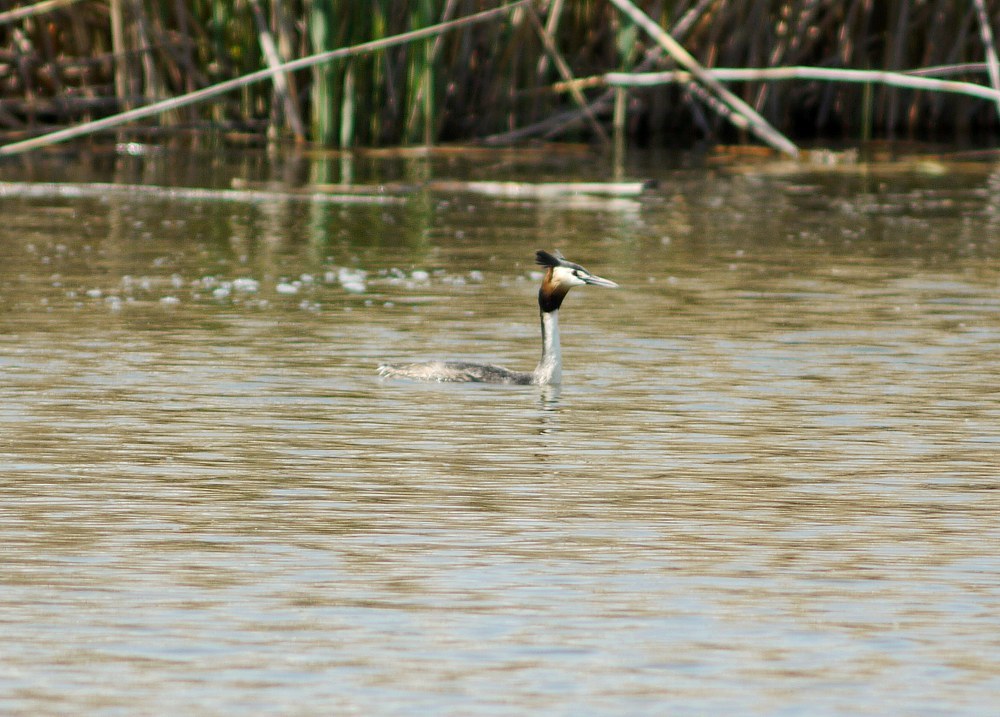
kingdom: Animalia
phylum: Chordata
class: Aves
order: Podicipediformes
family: Podicipedidae
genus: Podiceps
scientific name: Podiceps cristatus
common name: Great crested grebe
